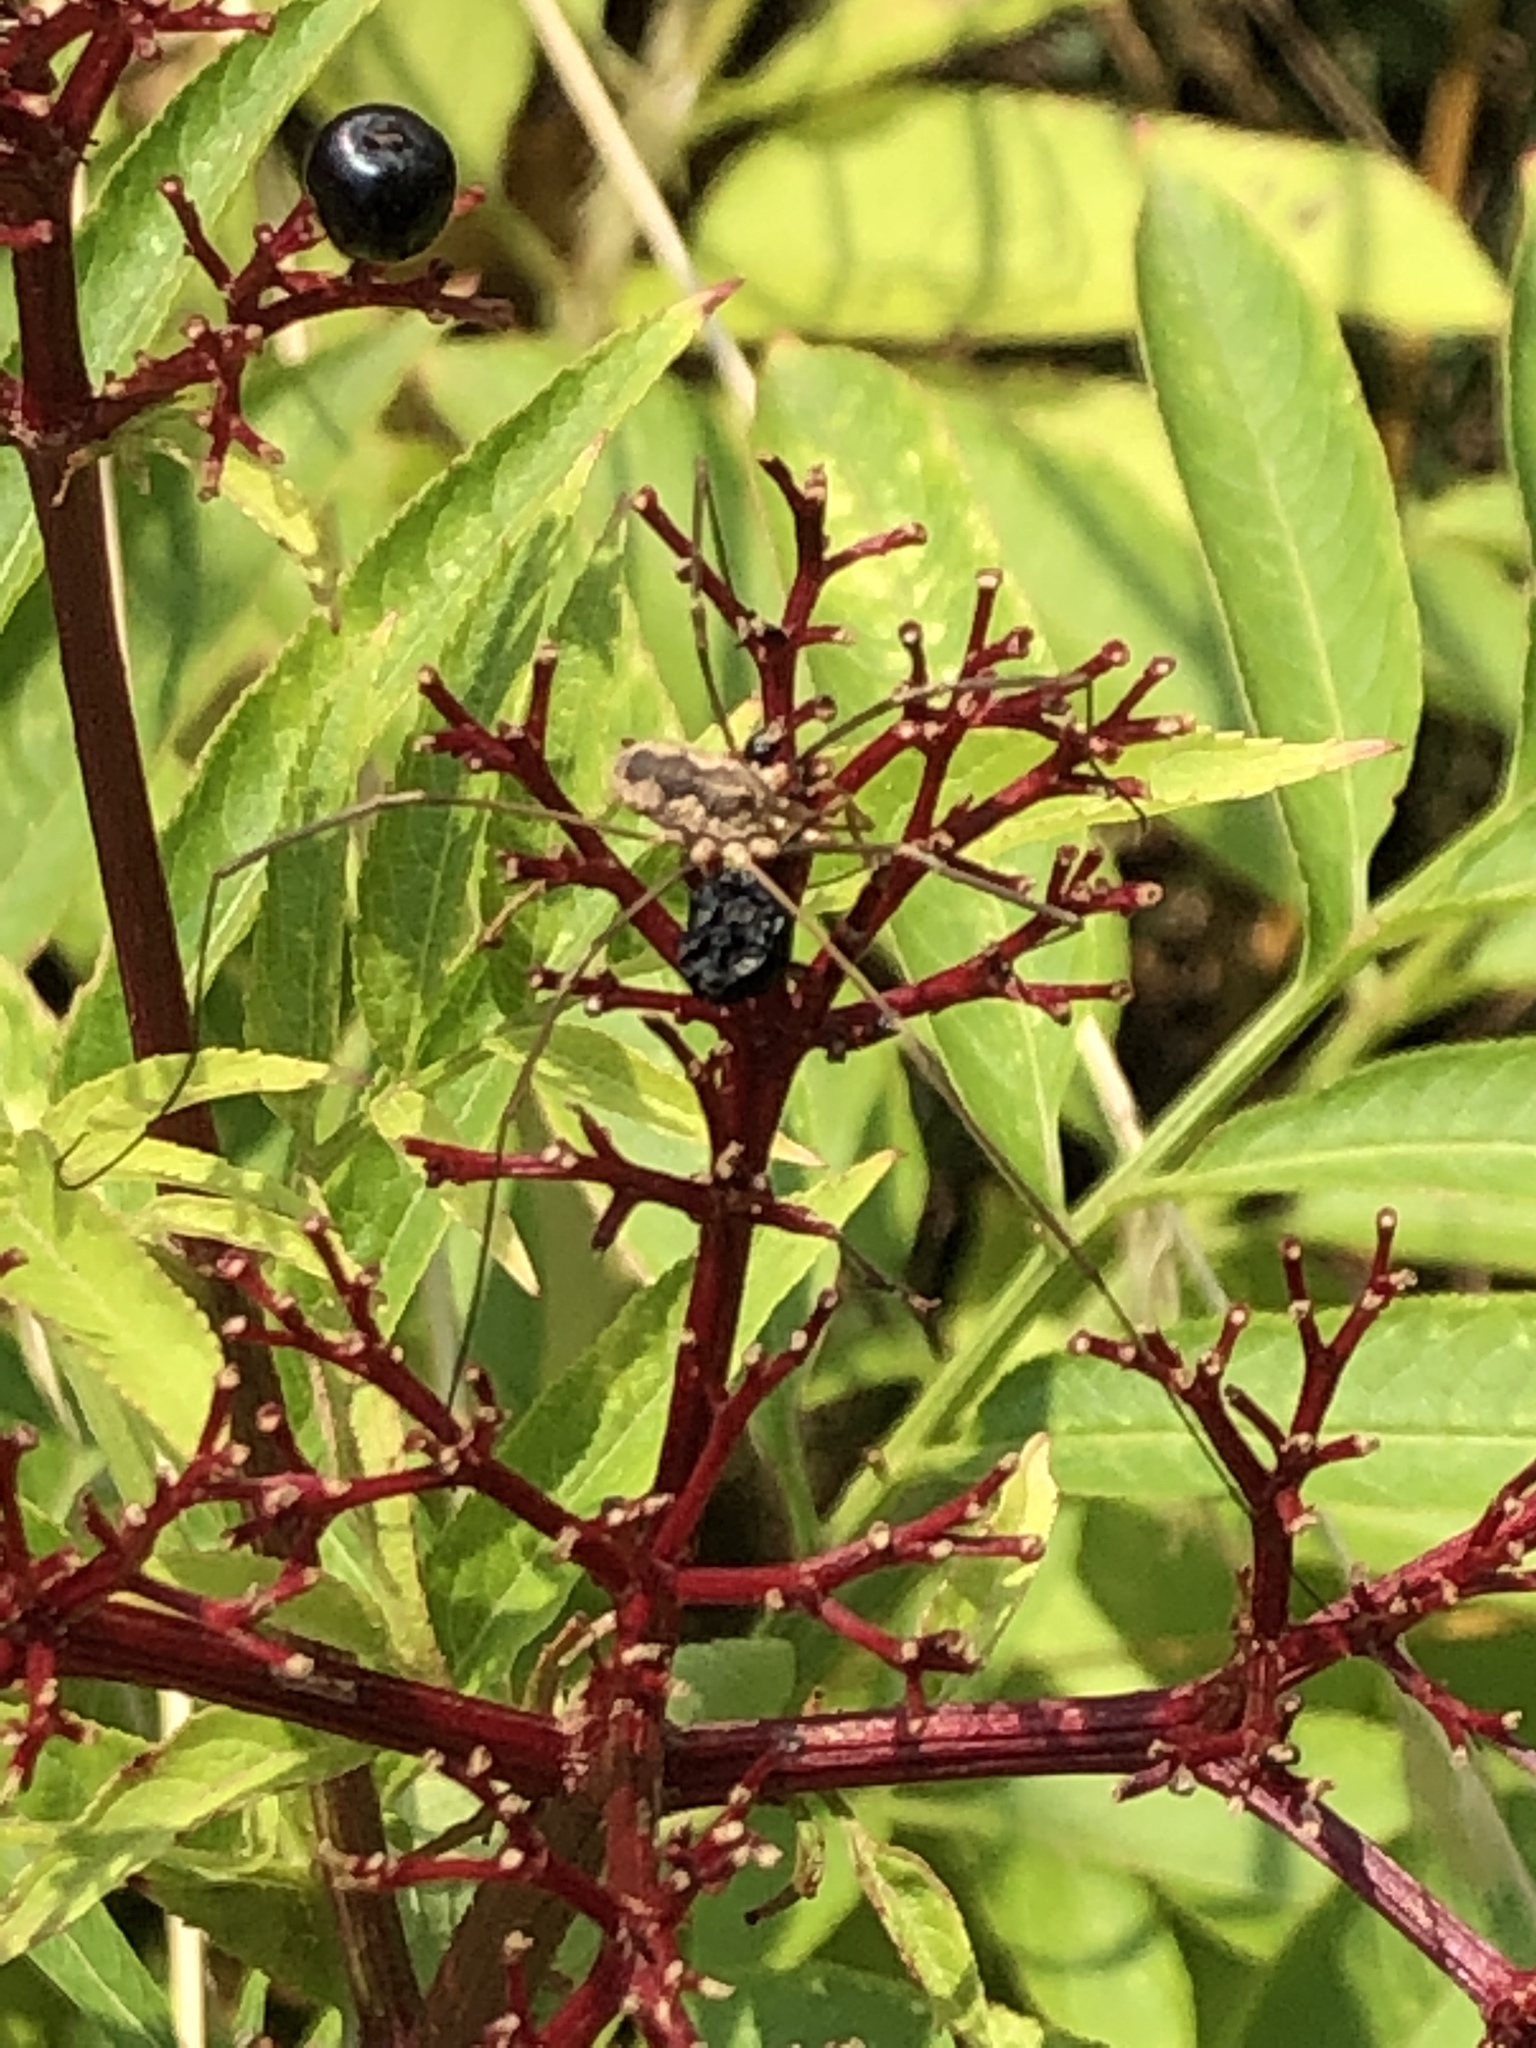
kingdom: Animalia
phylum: Arthropoda
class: Arachnida
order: Opiliones
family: Phalangiidae
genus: Phalangium
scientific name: Phalangium opilio
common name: Daddy longleg
